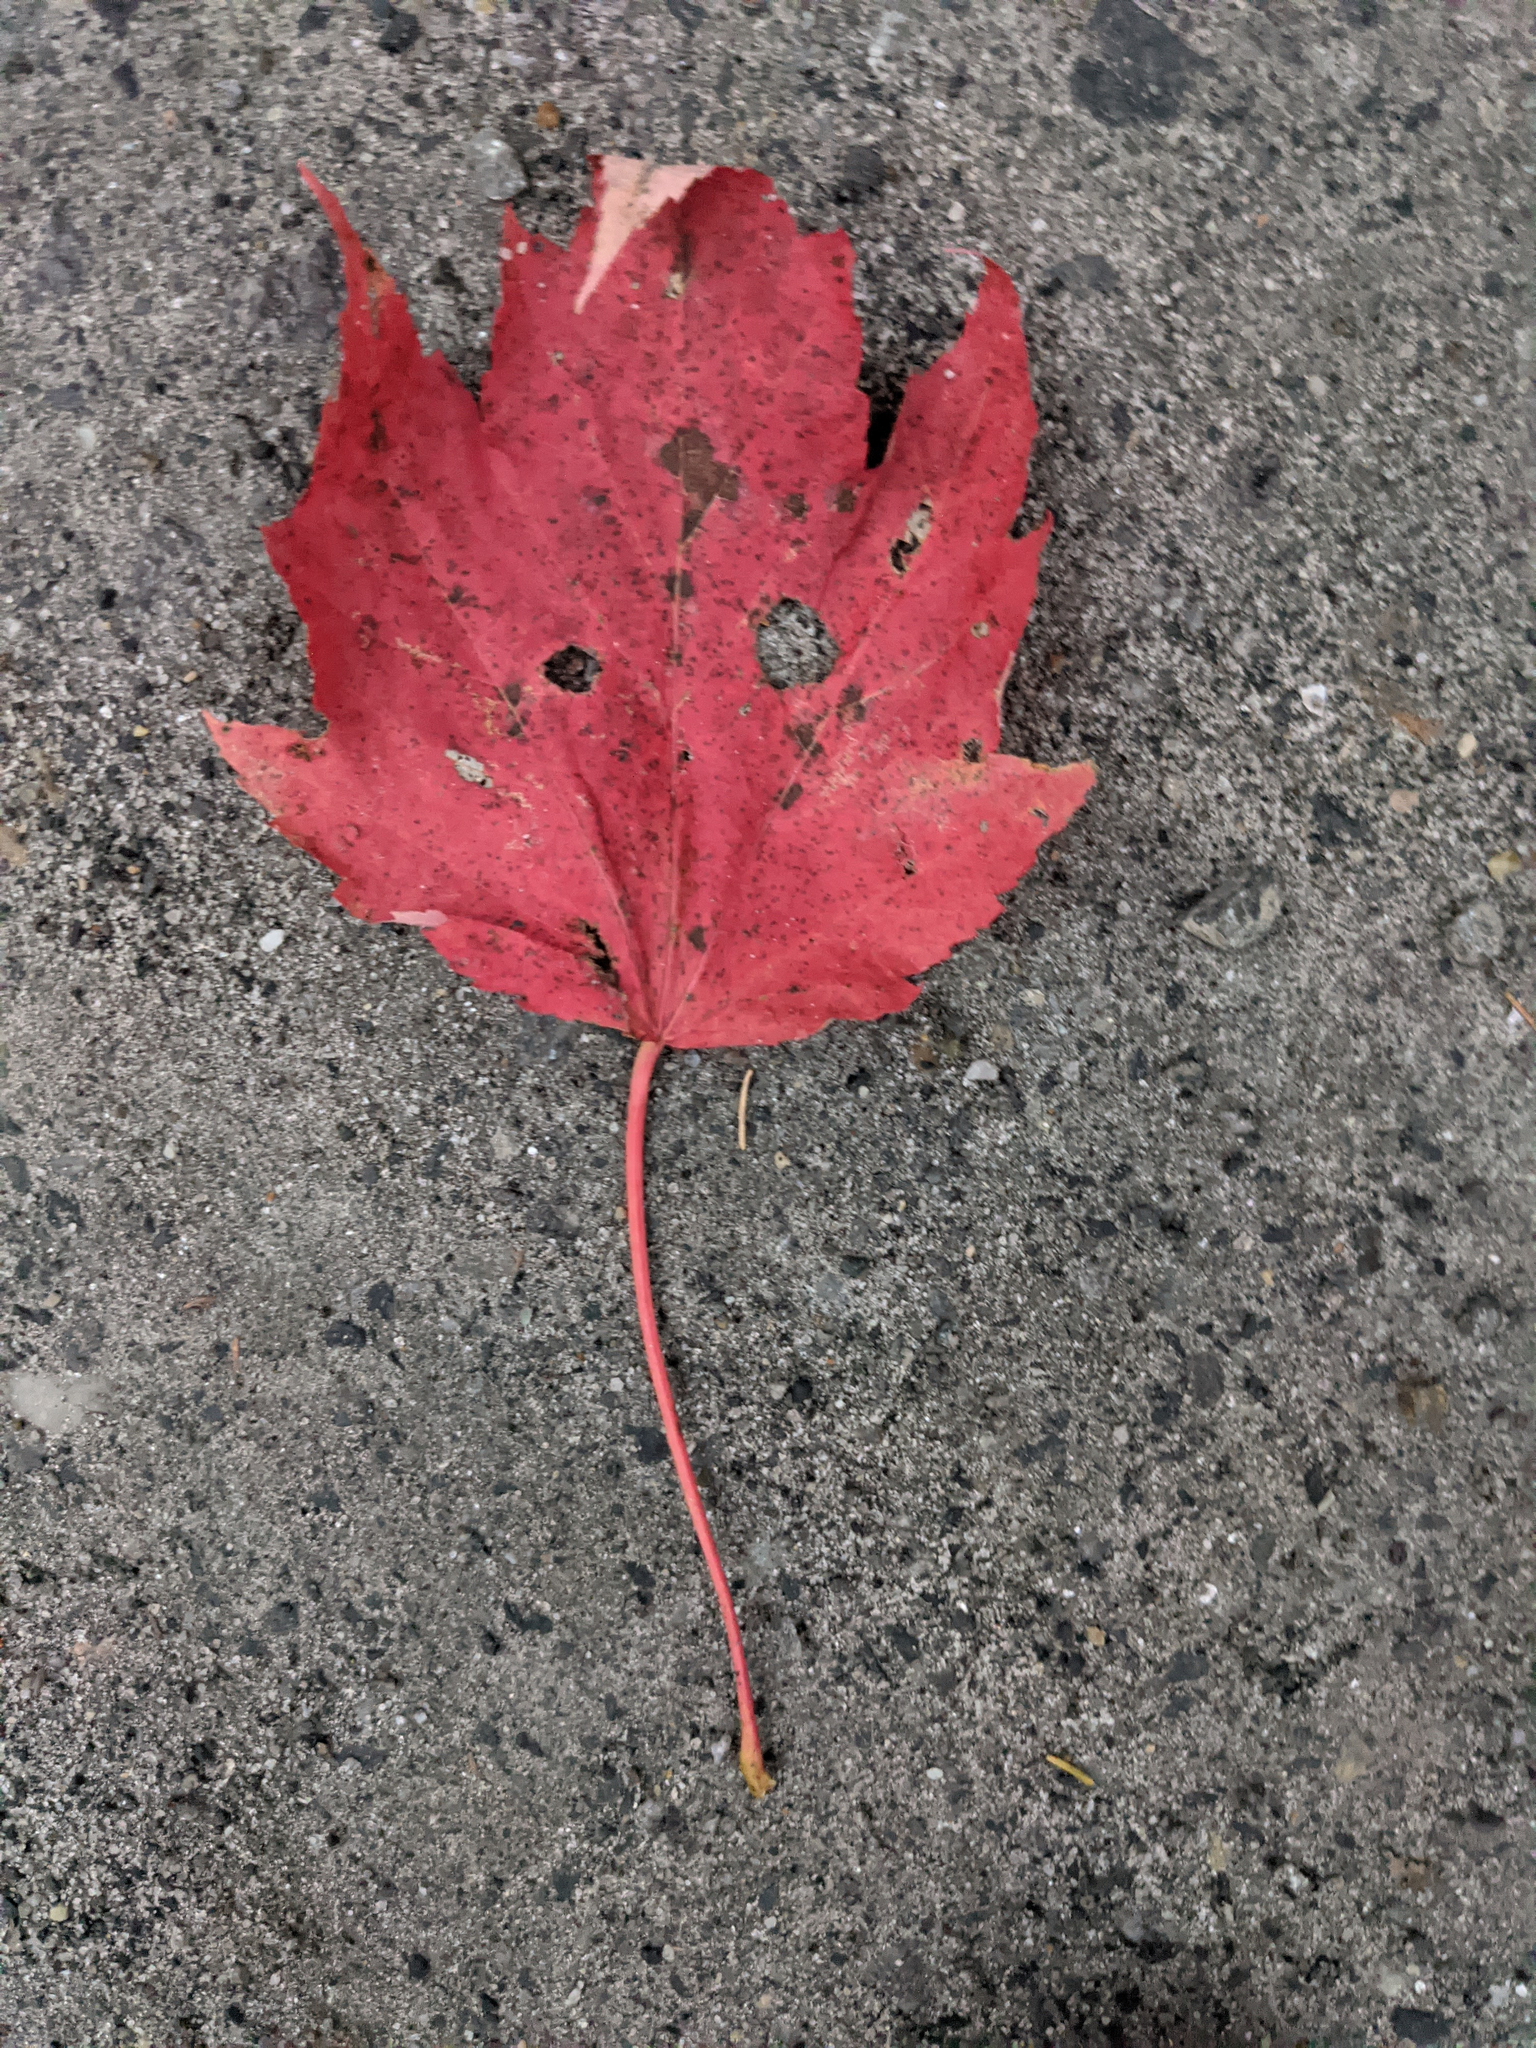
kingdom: Plantae
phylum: Tracheophyta
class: Magnoliopsida
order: Sapindales
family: Sapindaceae
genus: Acer
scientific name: Acer rubrum
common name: Red maple
